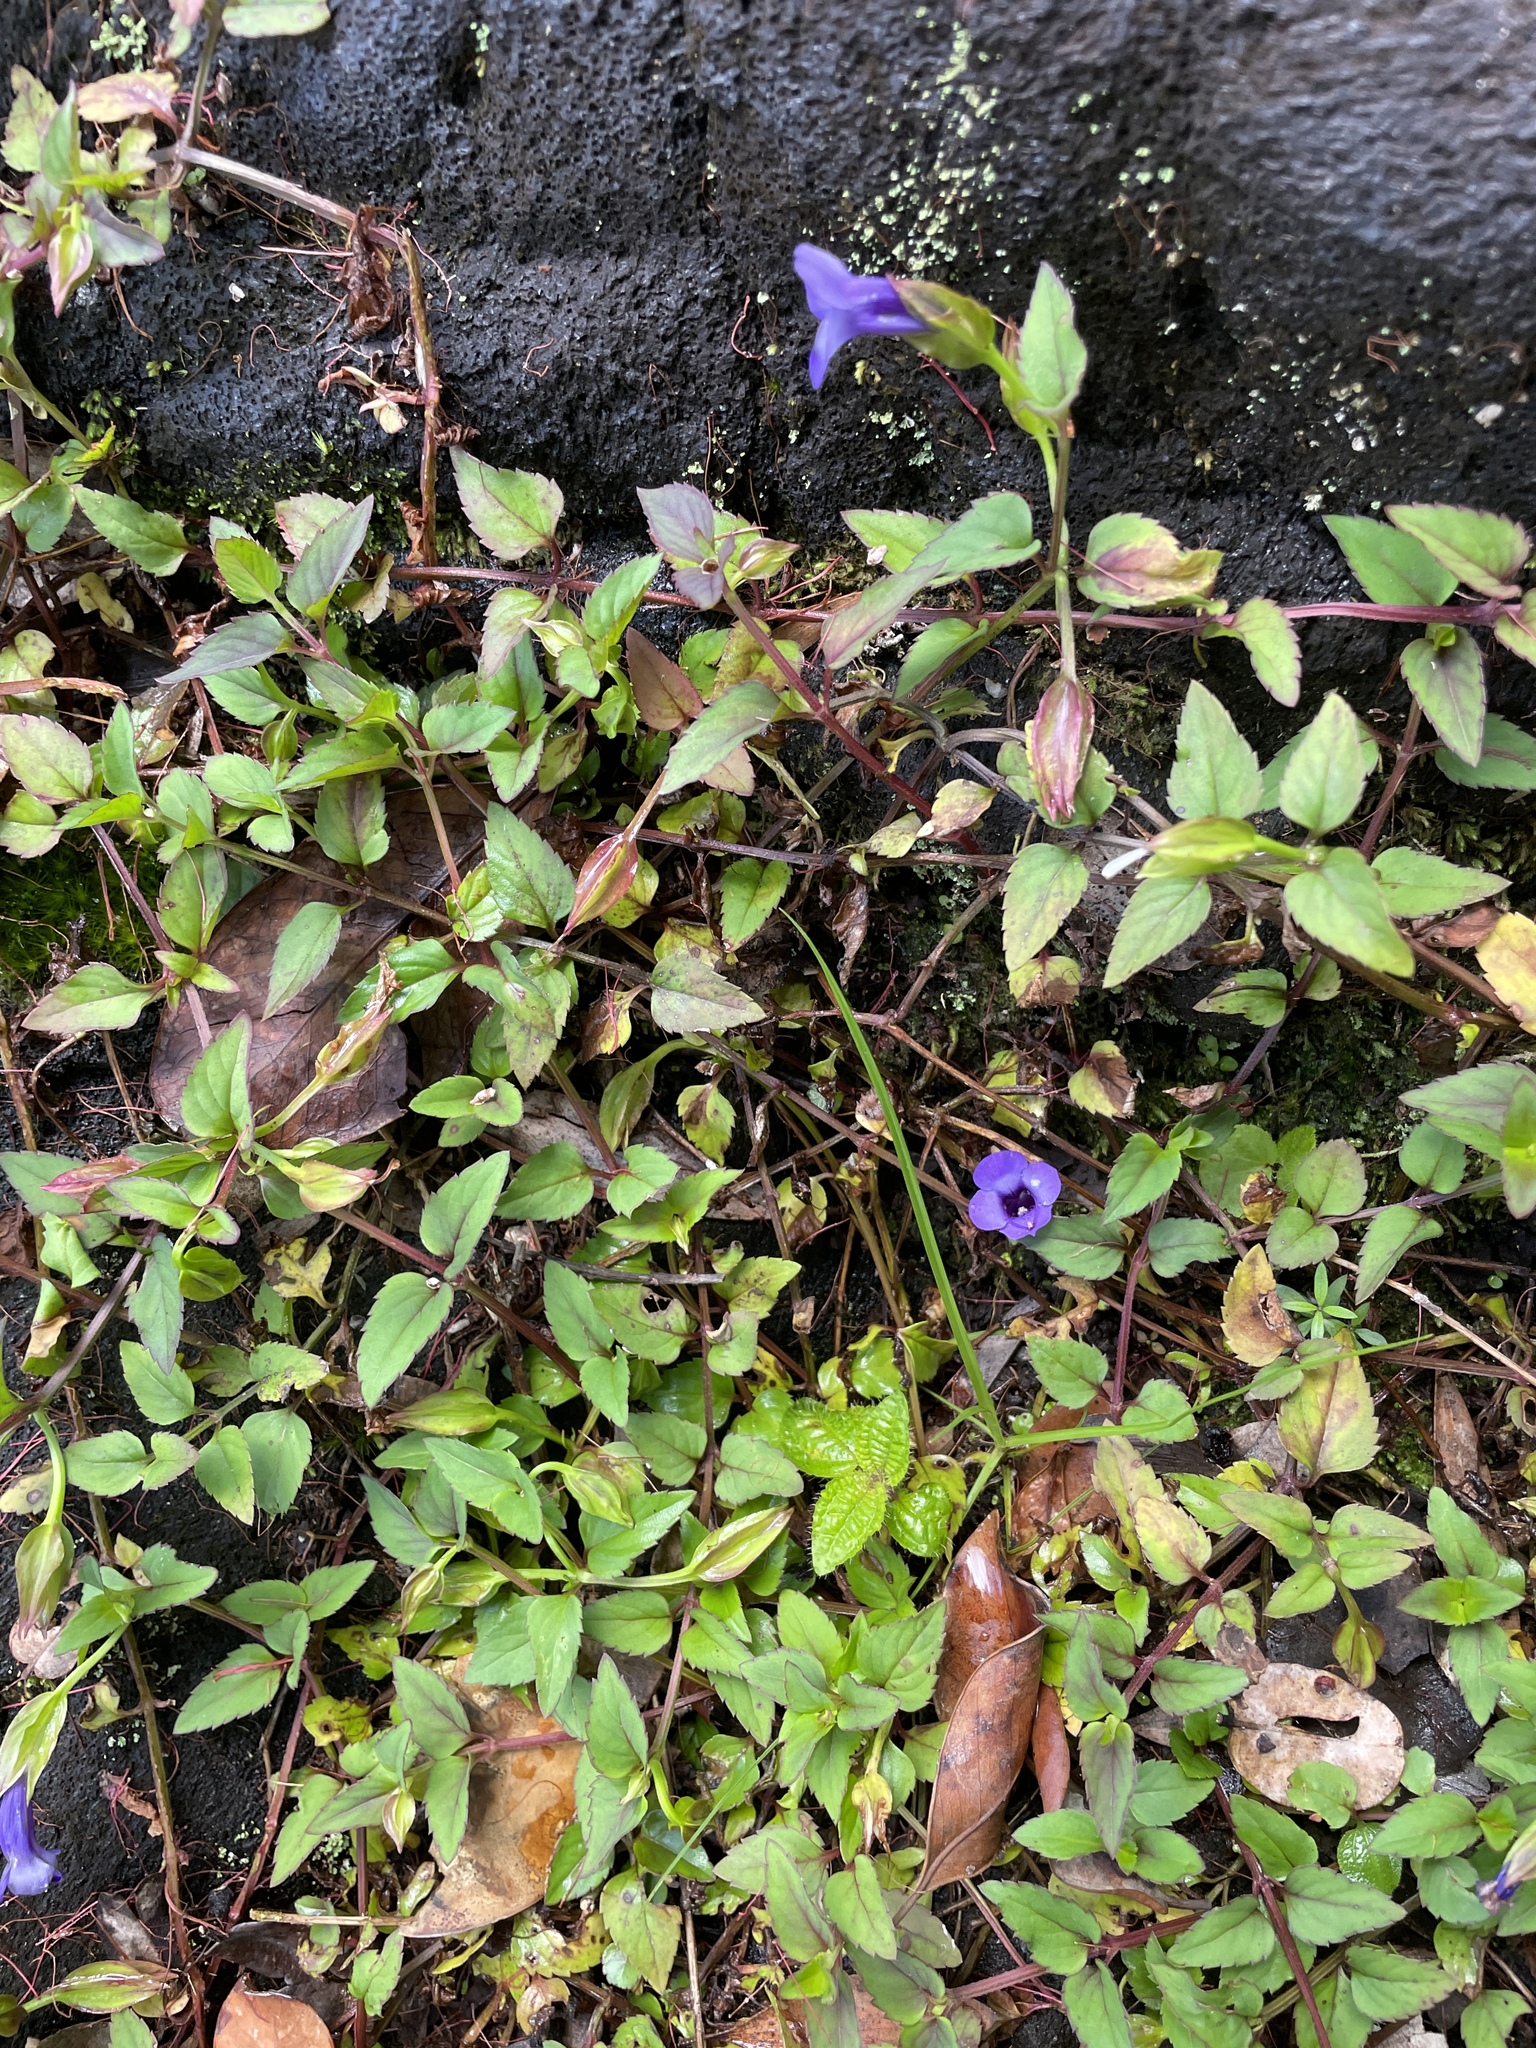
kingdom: Plantae
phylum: Tracheophyta
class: Magnoliopsida
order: Lamiales
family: Linderniaceae
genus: Torenia
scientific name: Torenia asiatica
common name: Wishbone flower
